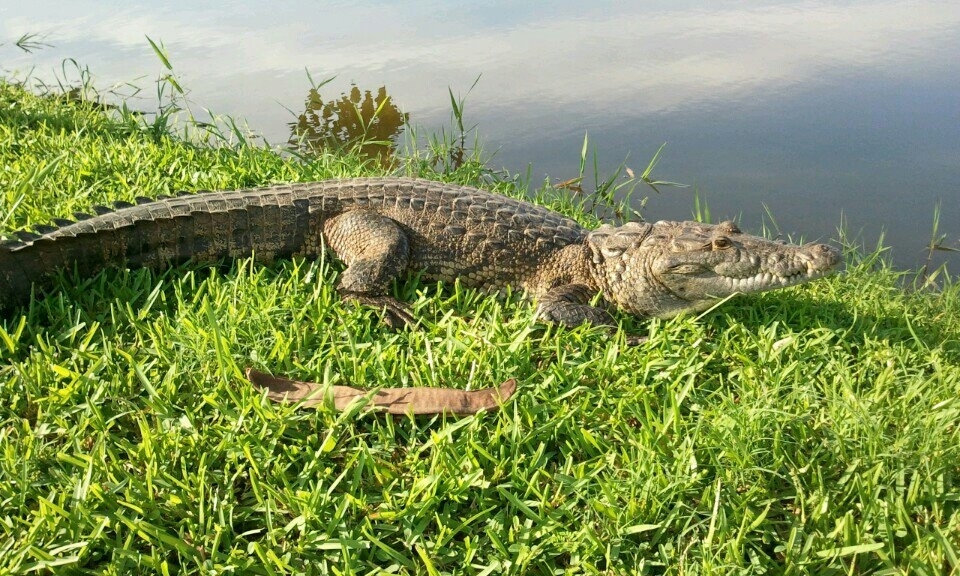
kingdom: Animalia
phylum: Chordata
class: Crocodylia
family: Crocodylidae
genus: Crocodylus
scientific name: Crocodylus moreletii
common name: Morelet's crocodile
